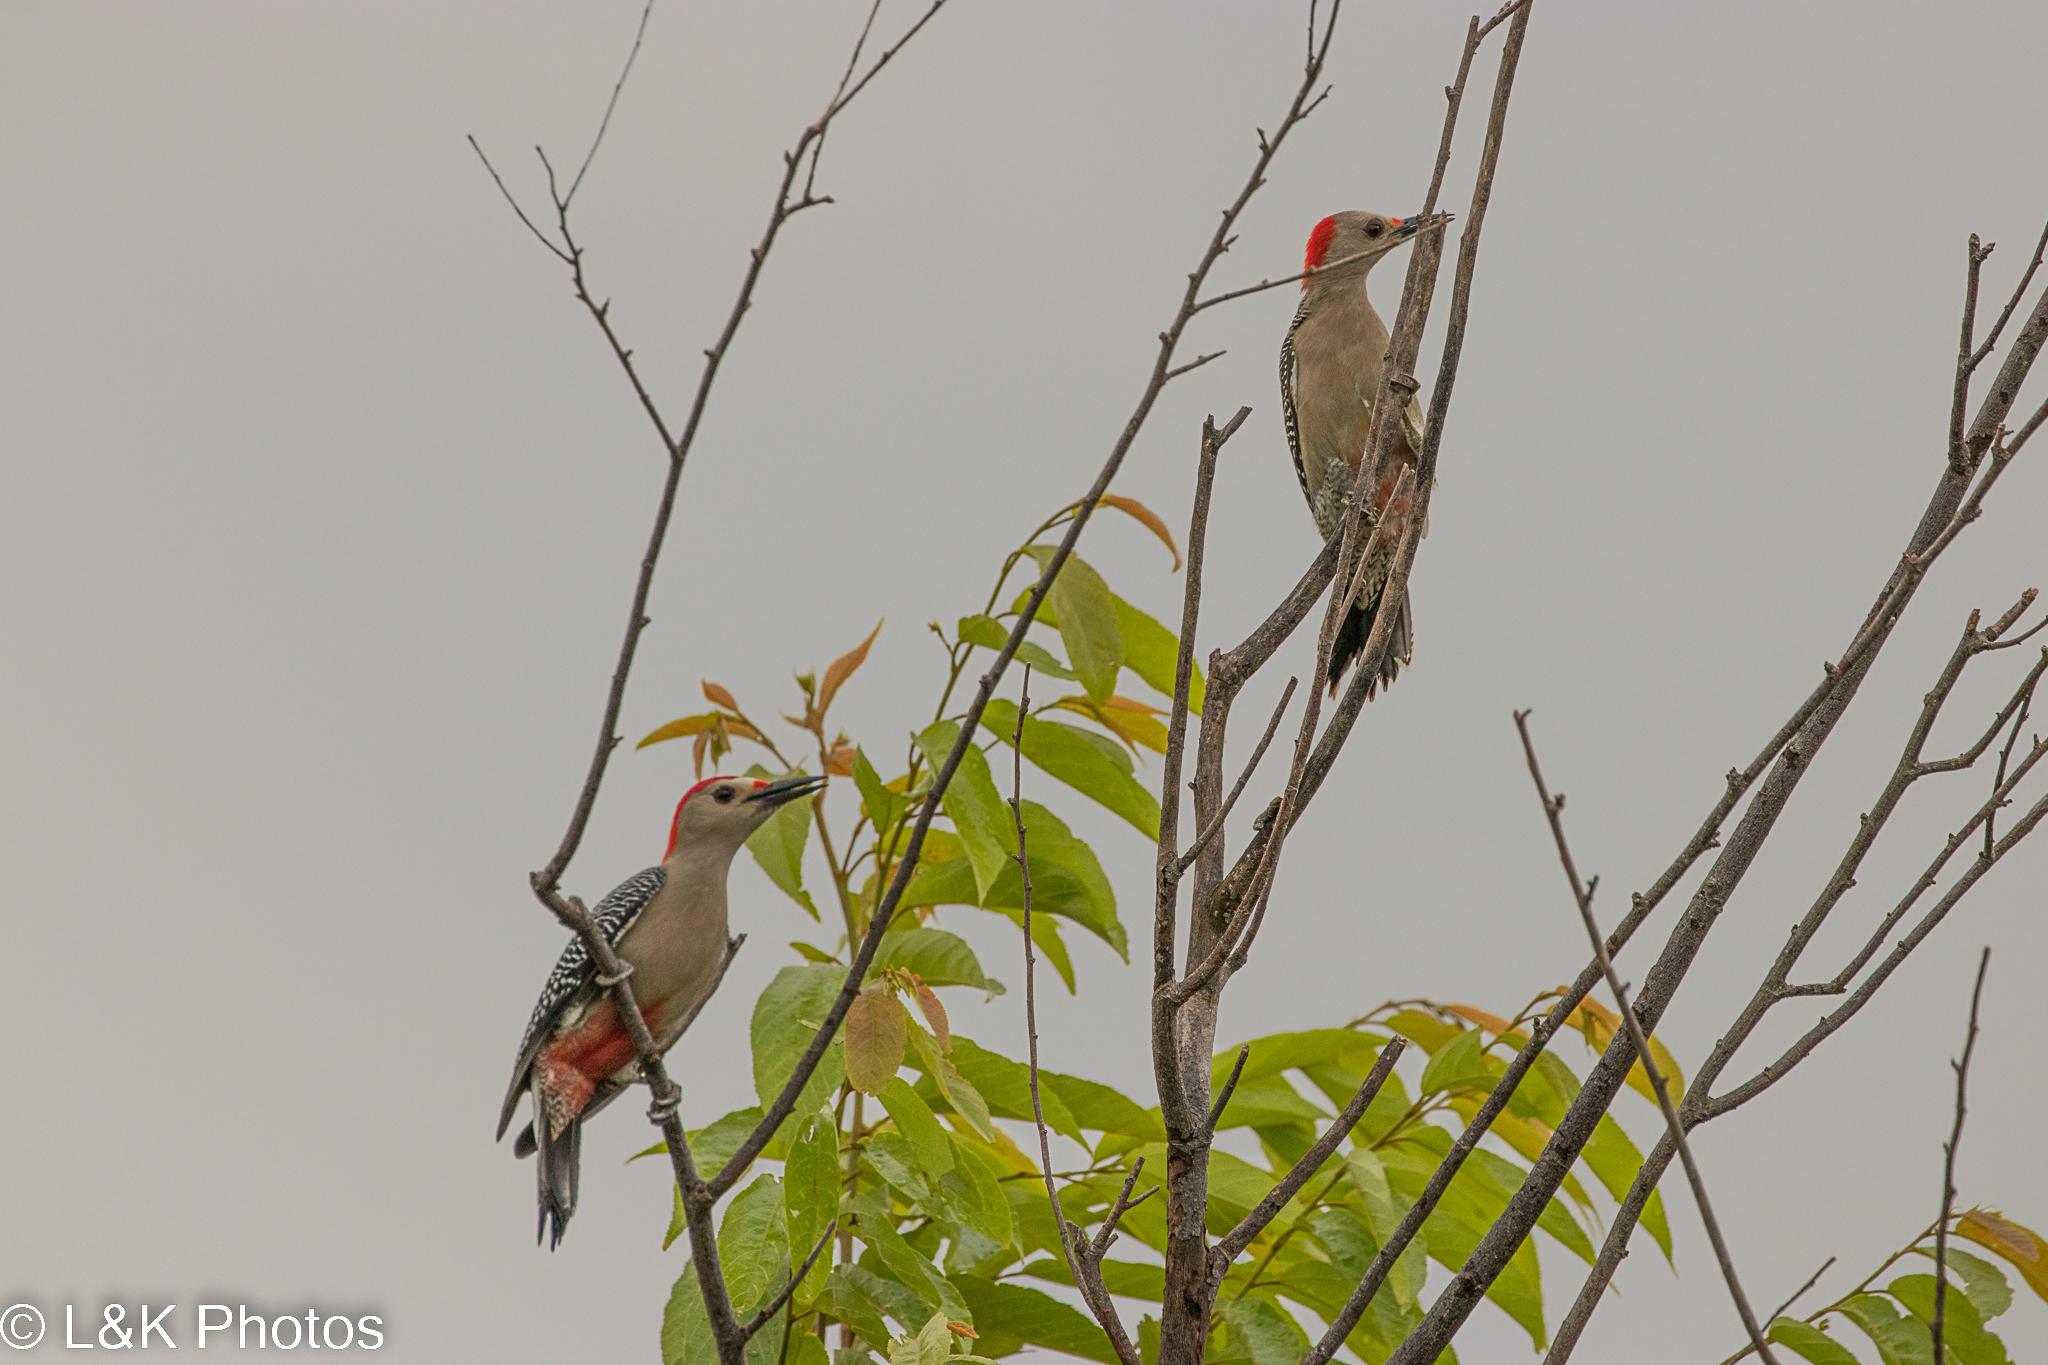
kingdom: Animalia
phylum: Chordata
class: Aves
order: Piciformes
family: Picidae
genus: Melanerpes
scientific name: Melanerpes aurifrons
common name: Golden-fronted woodpecker
